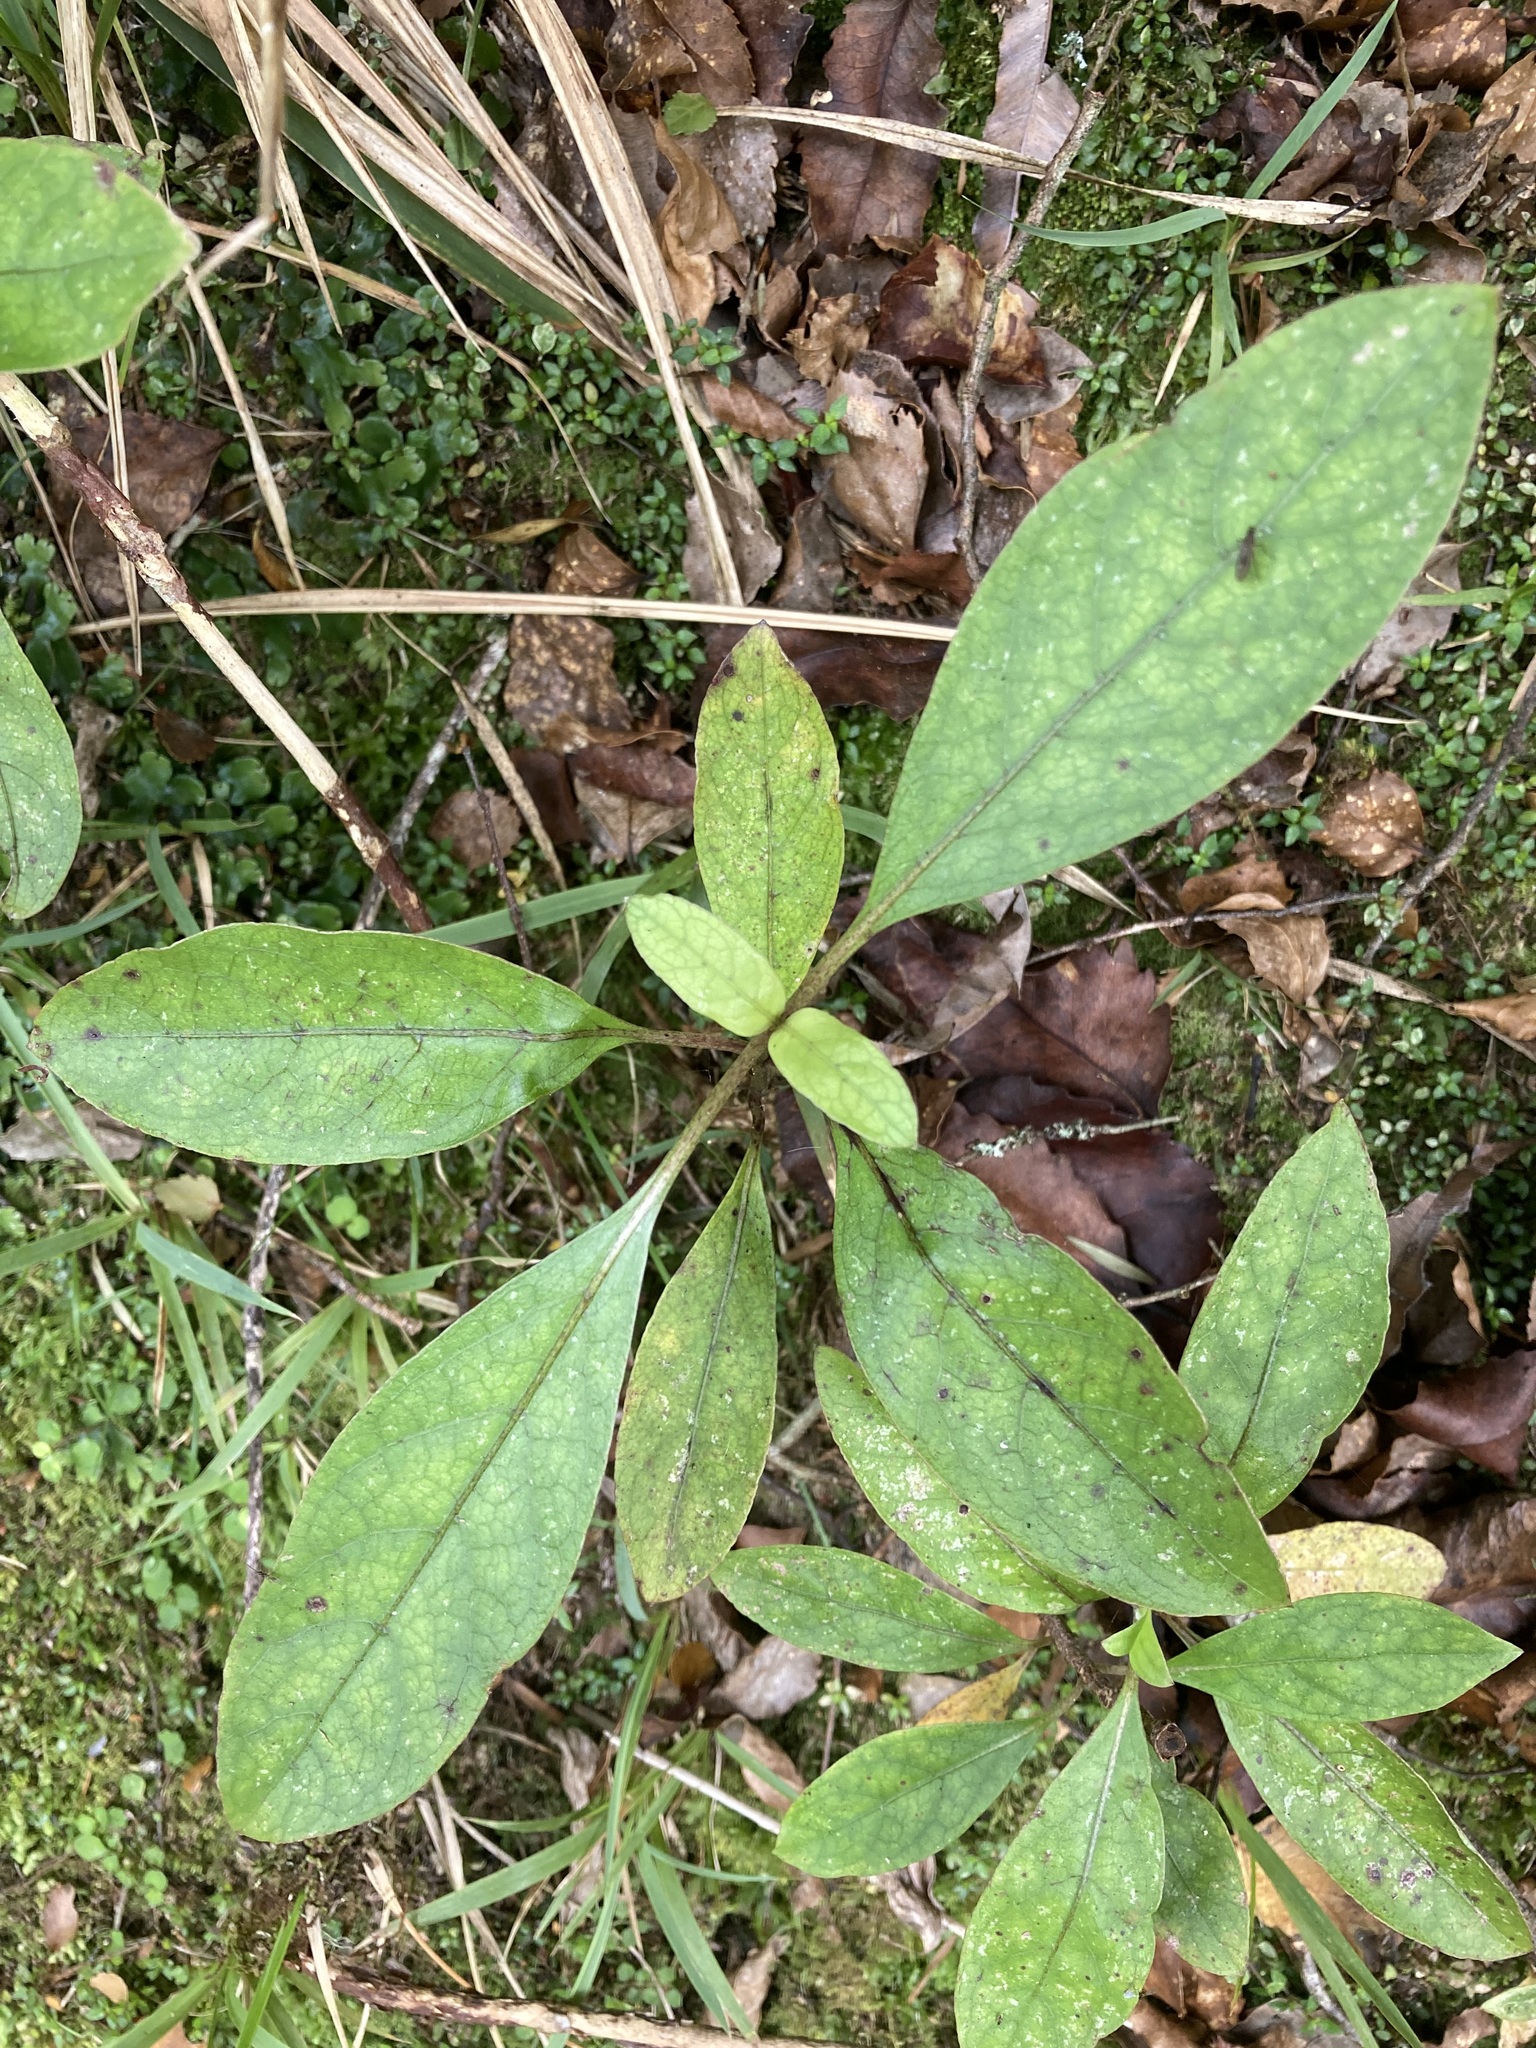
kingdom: Plantae
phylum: Tracheophyta
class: Magnoliopsida
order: Gentianales
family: Rubiaceae
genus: Coprosma
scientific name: Coprosma autumnalis
